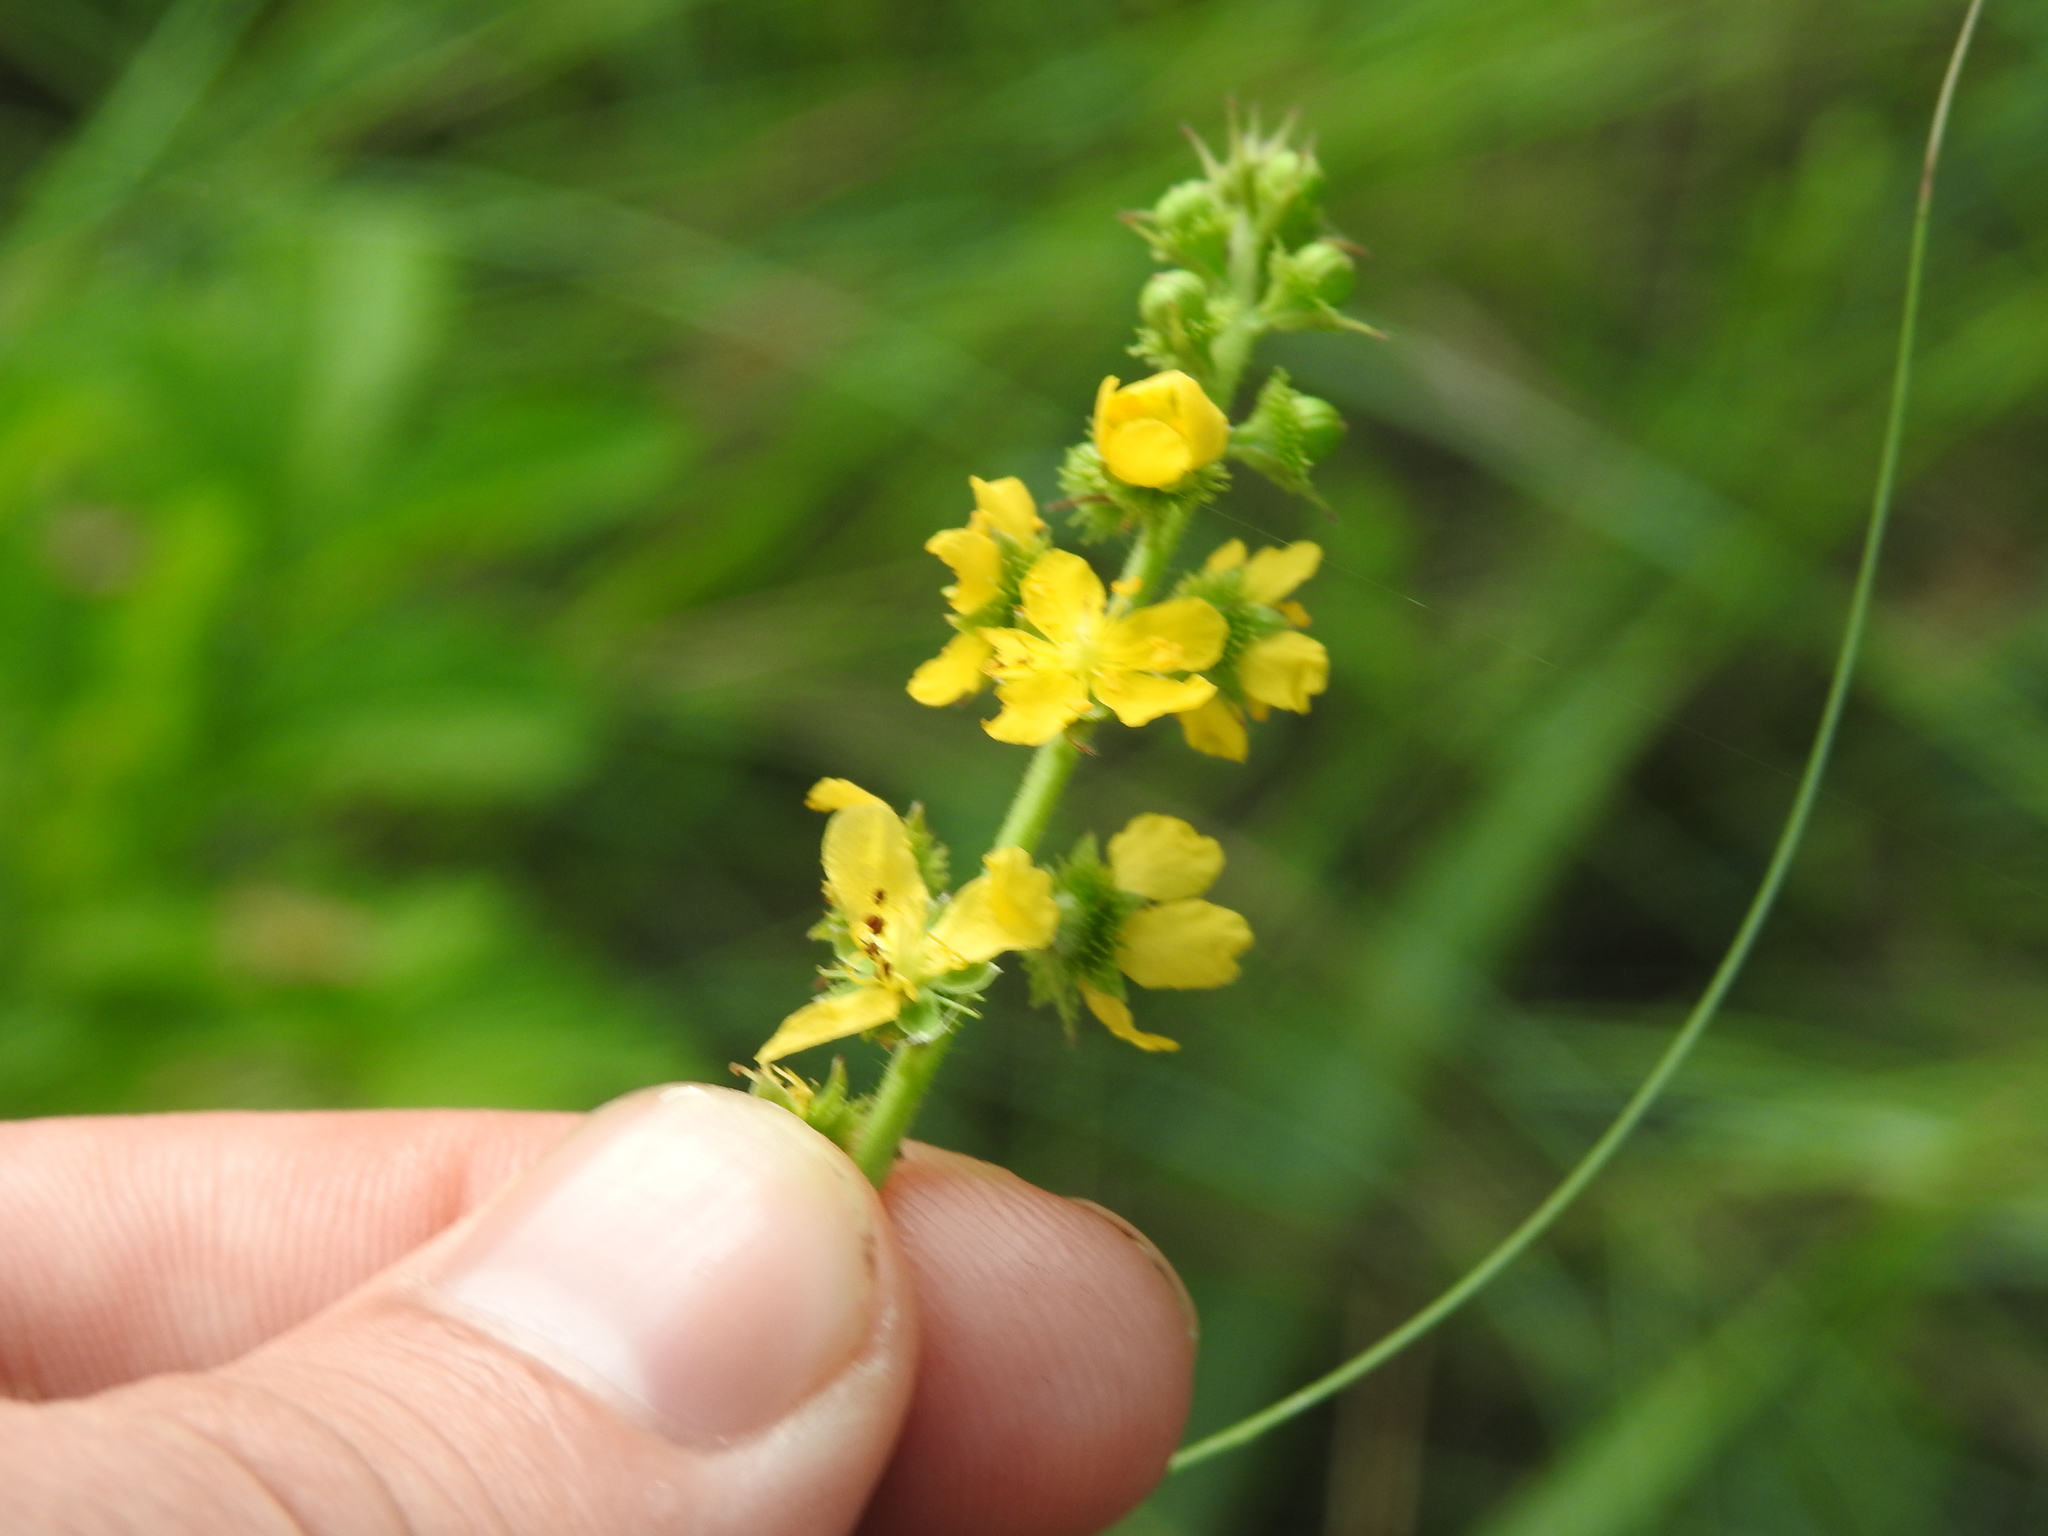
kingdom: Plantae
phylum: Tracheophyta
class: Magnoliopsida
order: Rosales
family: Rosaceae
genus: Agrimonia
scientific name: Agrimonia bracteata
